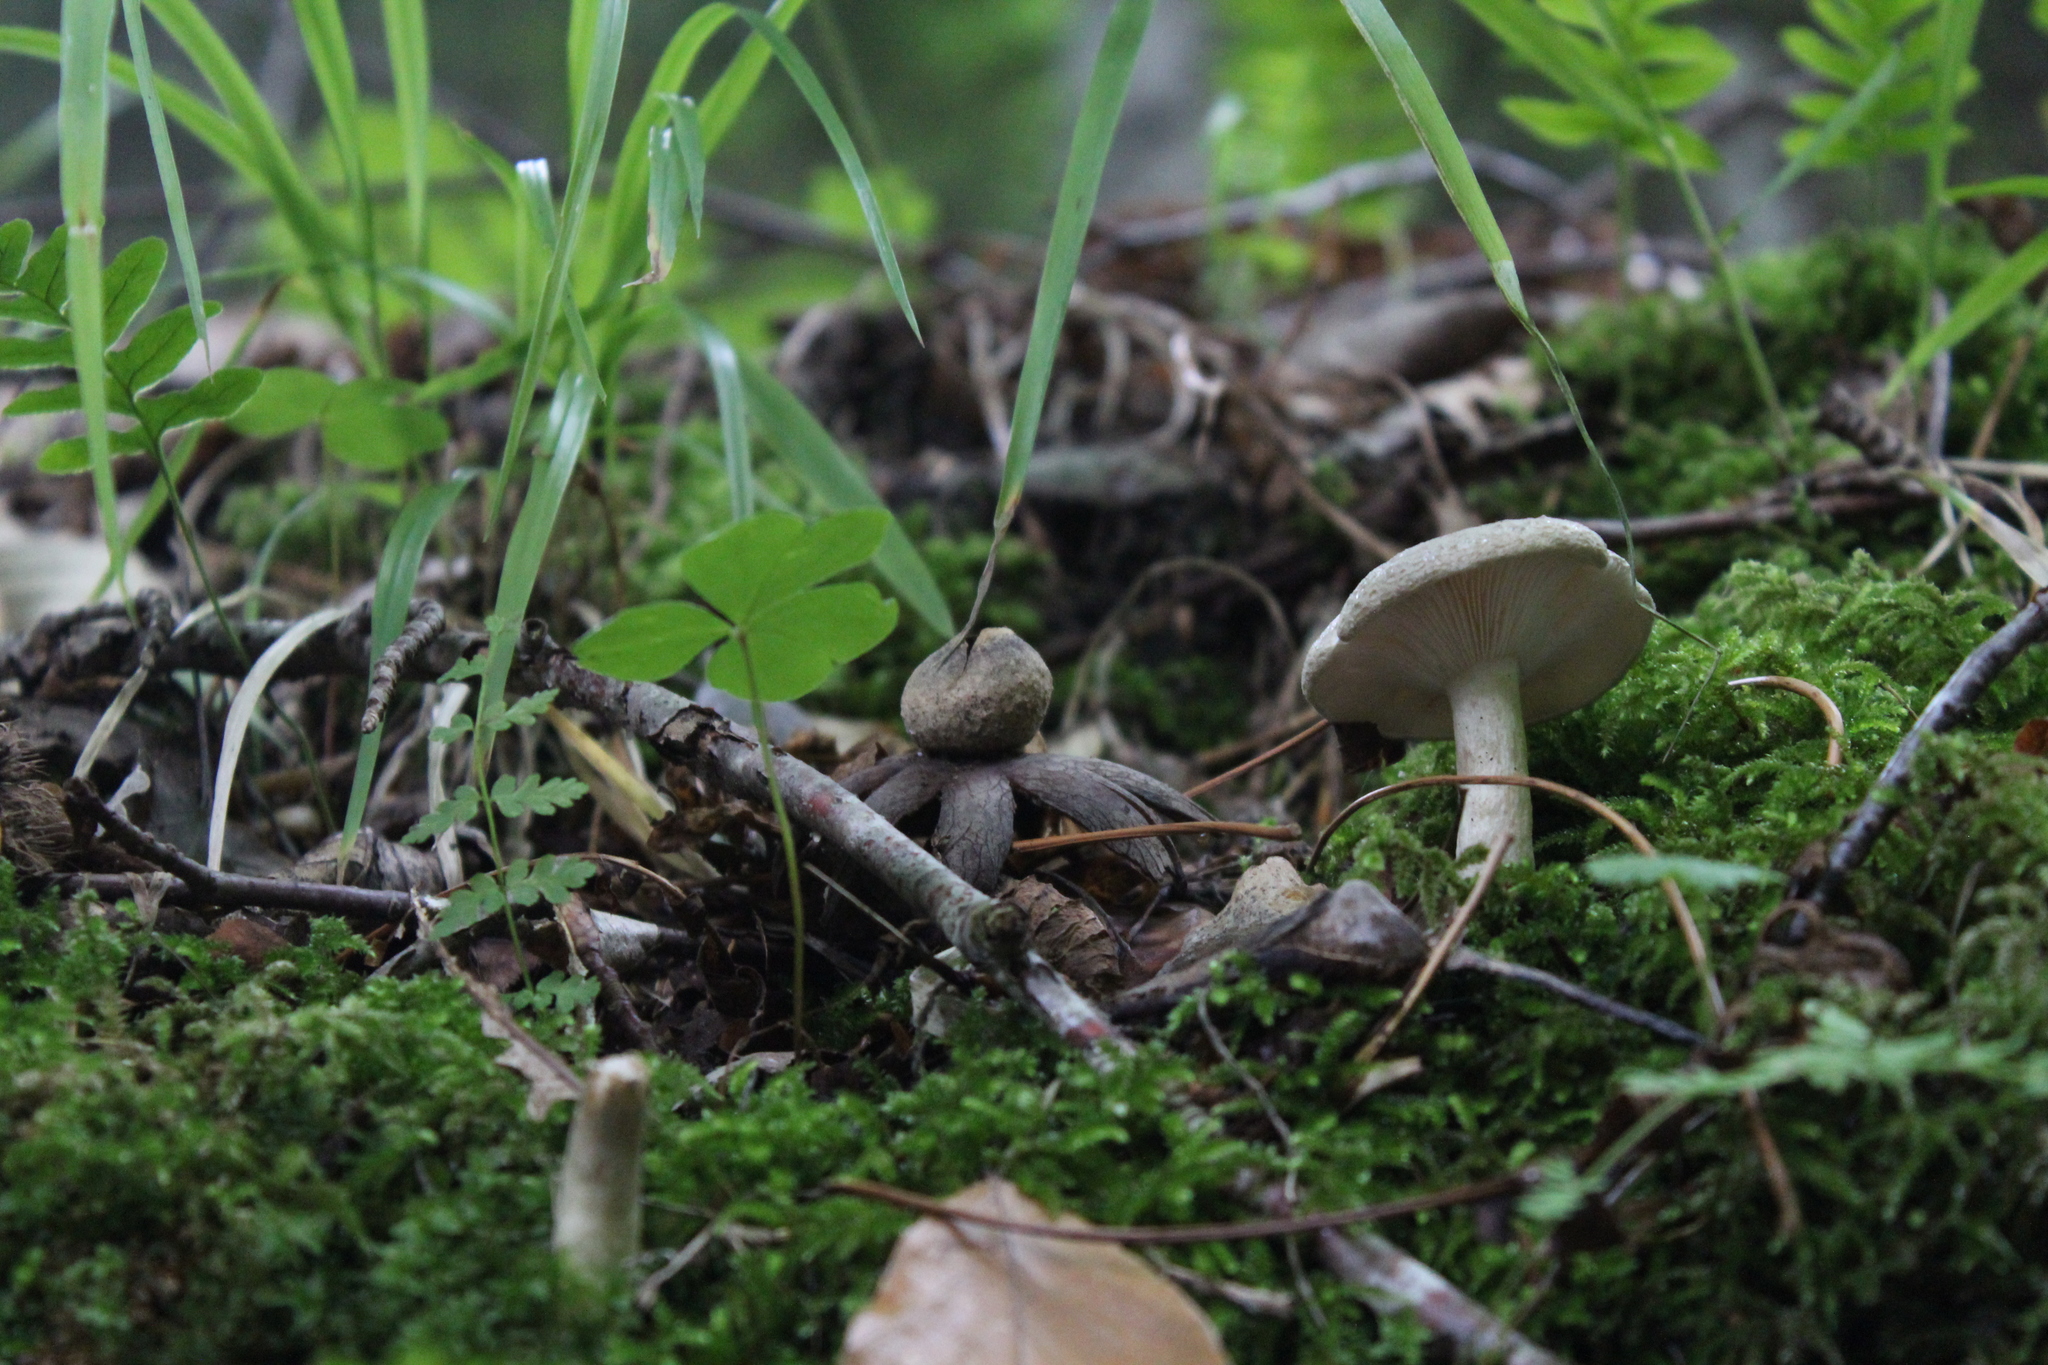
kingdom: Fungi
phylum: Basidiomycota
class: Agaricomycetes
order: Boletales
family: Diplocystidiaceae
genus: Astraeus
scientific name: Astraeus hygrometricus
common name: Barometer earthstar
